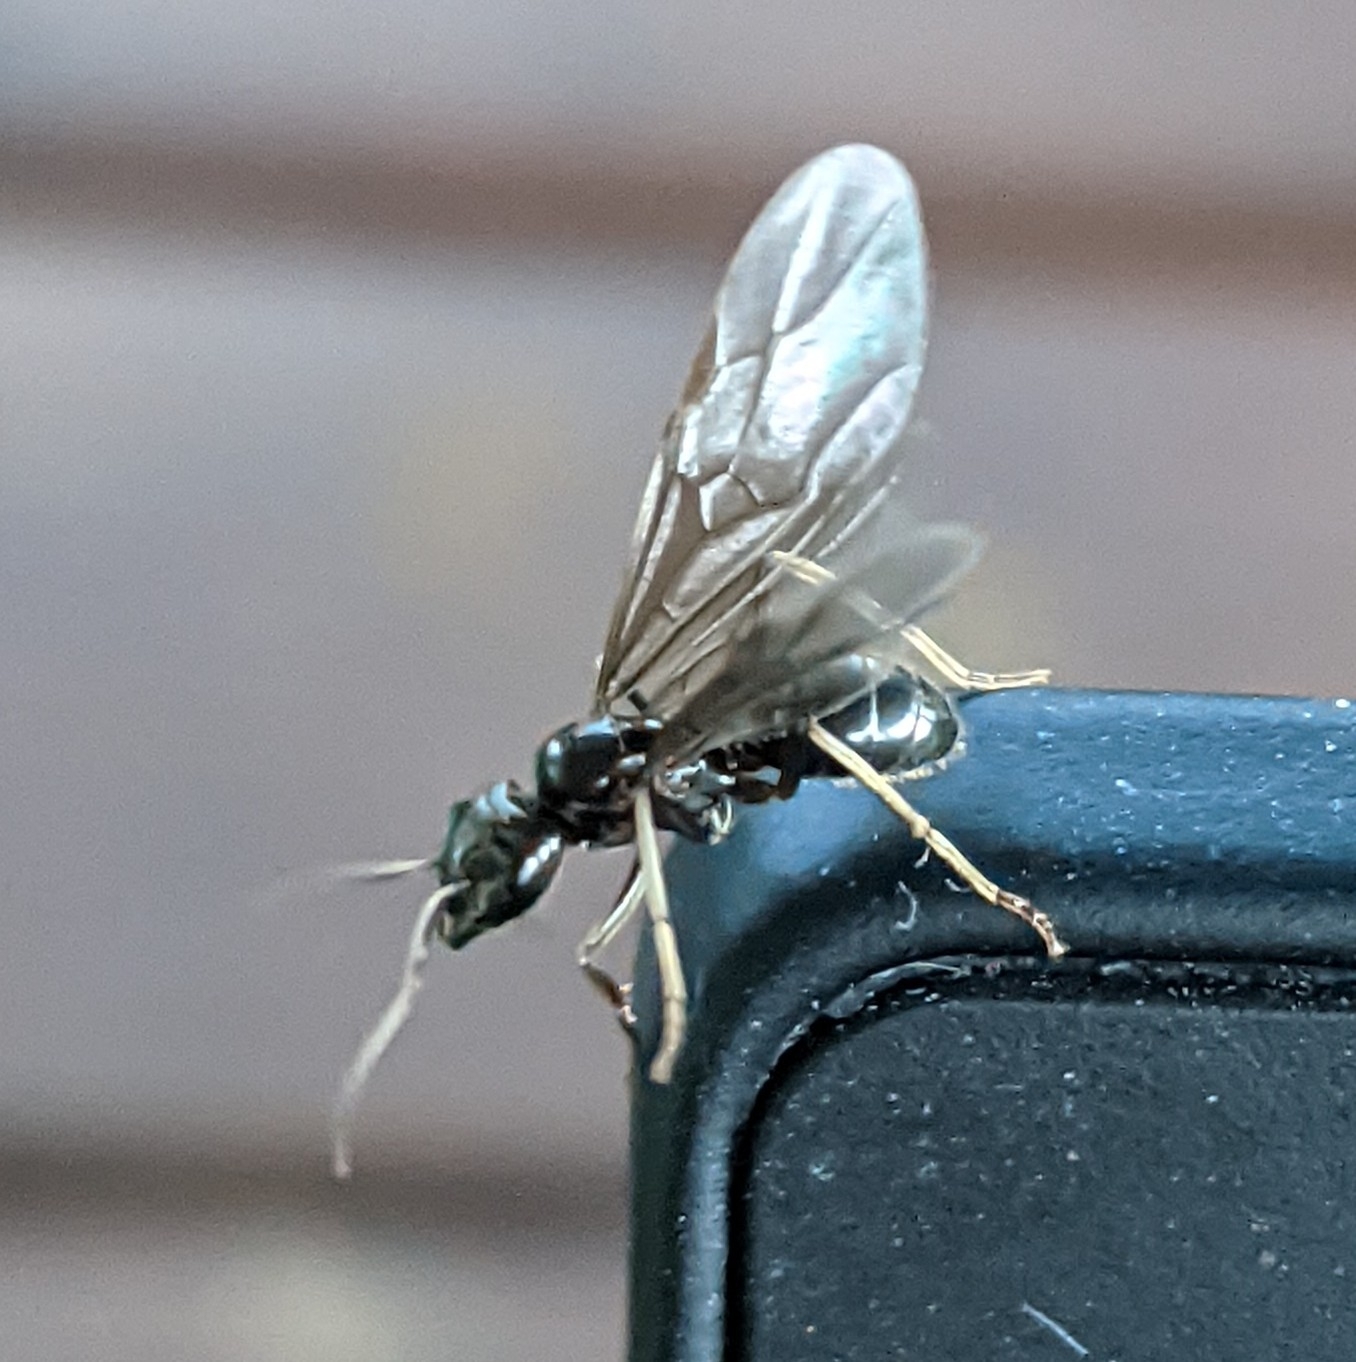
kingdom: Animalia
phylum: Arthropoda
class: Insecta
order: Hymenoptera
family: Formicidae
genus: Lasius
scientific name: Lasius fuliginosus
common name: Jet ant
